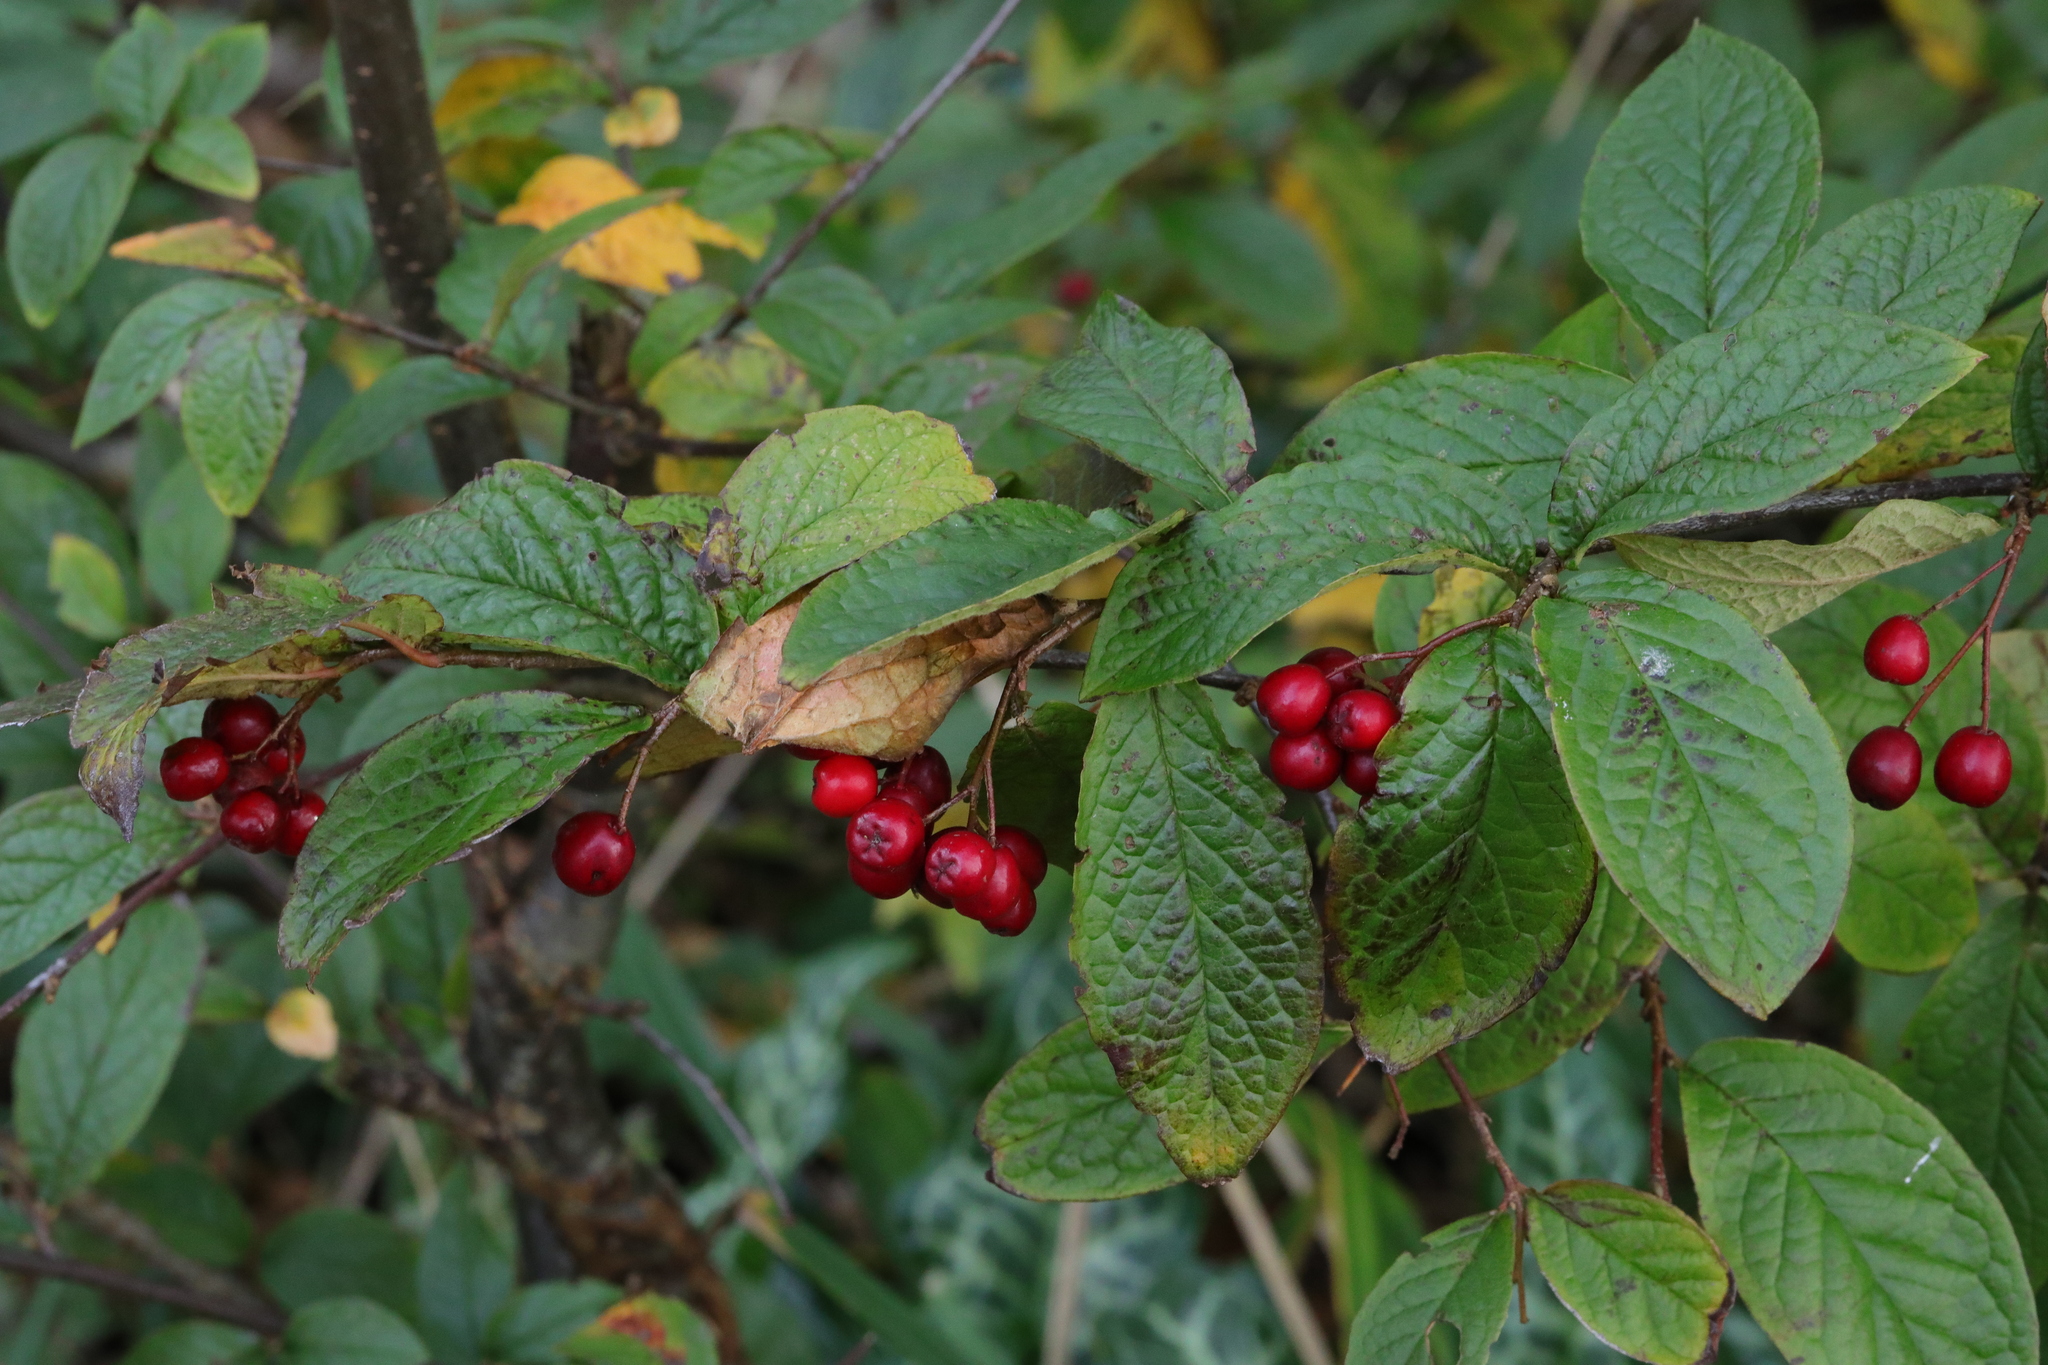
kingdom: Plantae
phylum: Tracheophyta
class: Magnoliopsida
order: Rosales
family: Rosaceae
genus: Cotoneaster
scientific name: Cotoneaster bullatus
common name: Hollyberry cotoneaster
